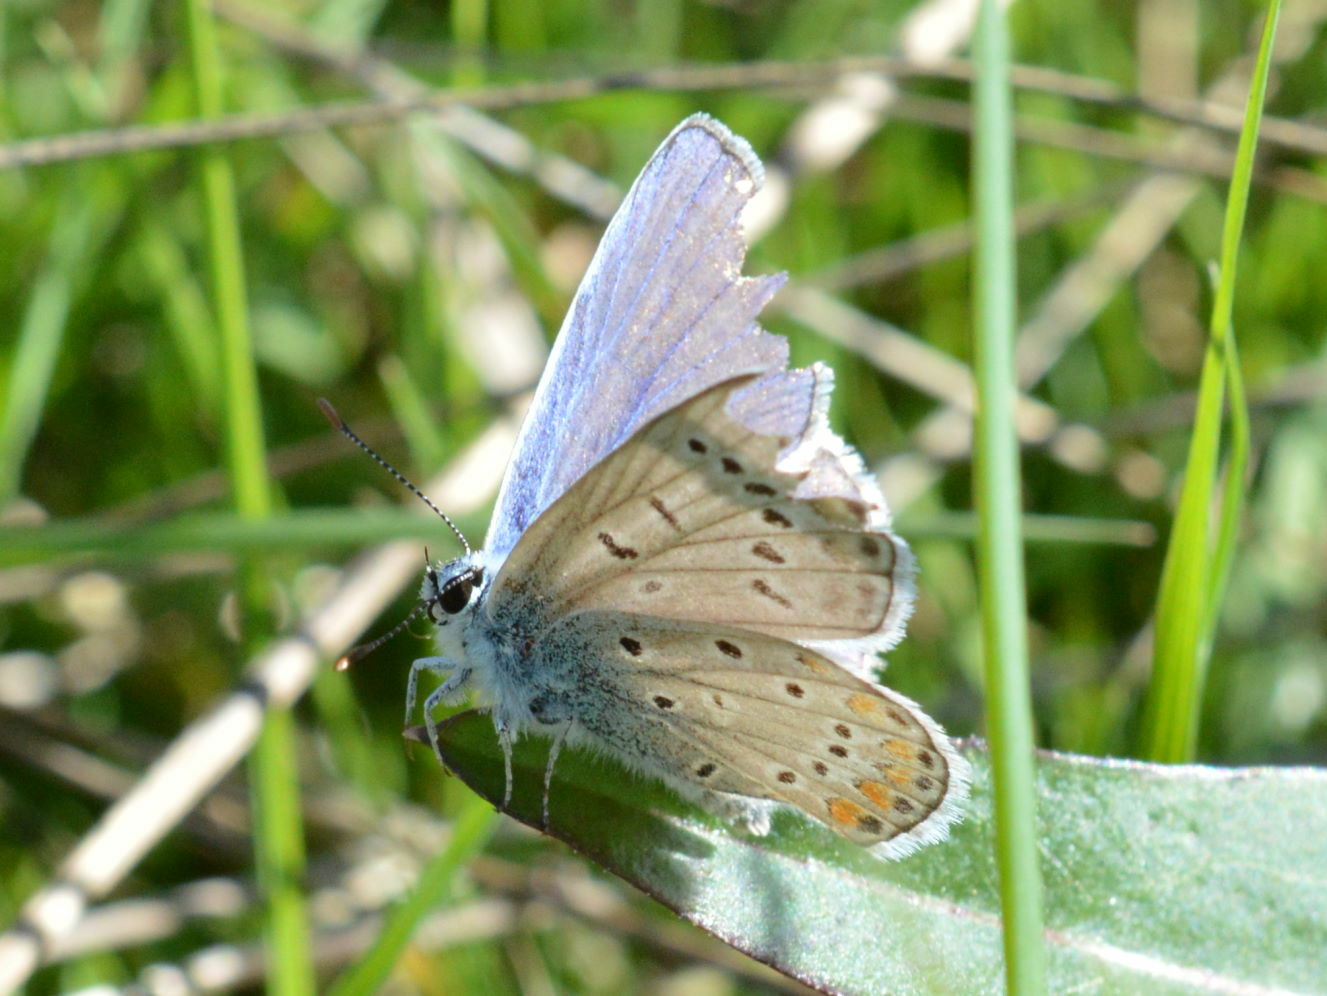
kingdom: Animalia
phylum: Arthropoda
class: Insecta
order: Lepidoptera
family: Lycaenidae
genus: Polyommatus
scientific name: Polyommatus icarus
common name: Common blue
